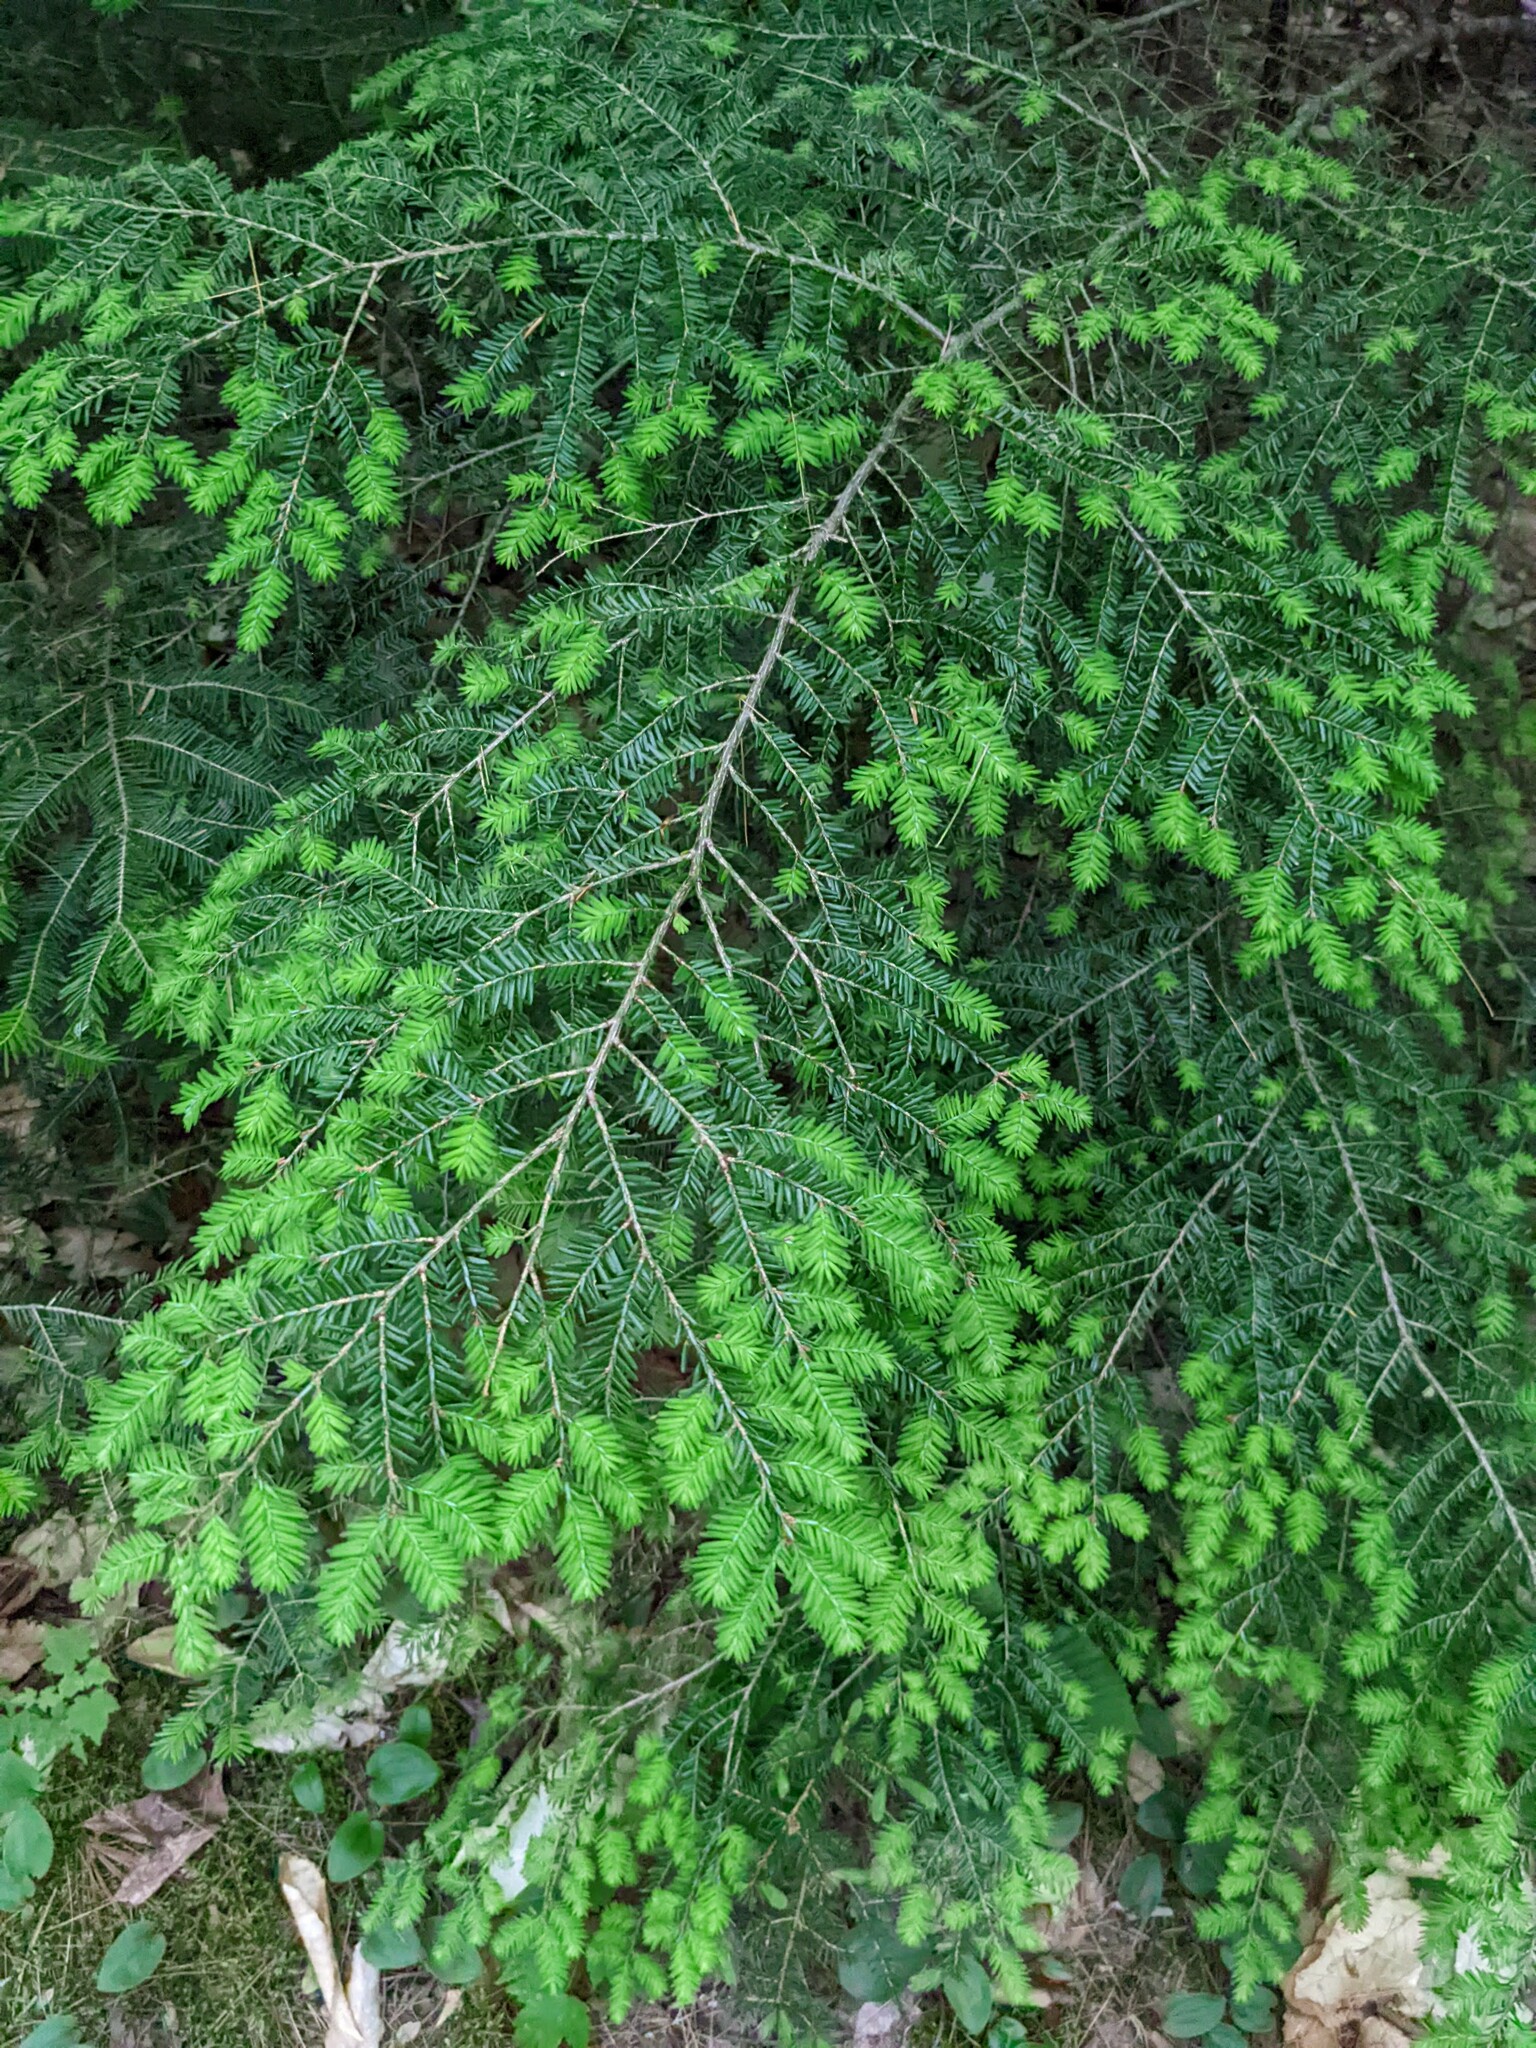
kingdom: Plantae
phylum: Tracheophyta
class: Pinopsida
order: Pinales
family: Pinaceae
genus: Tsuga
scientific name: Tsuga canadensis
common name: Eastern hemlock
